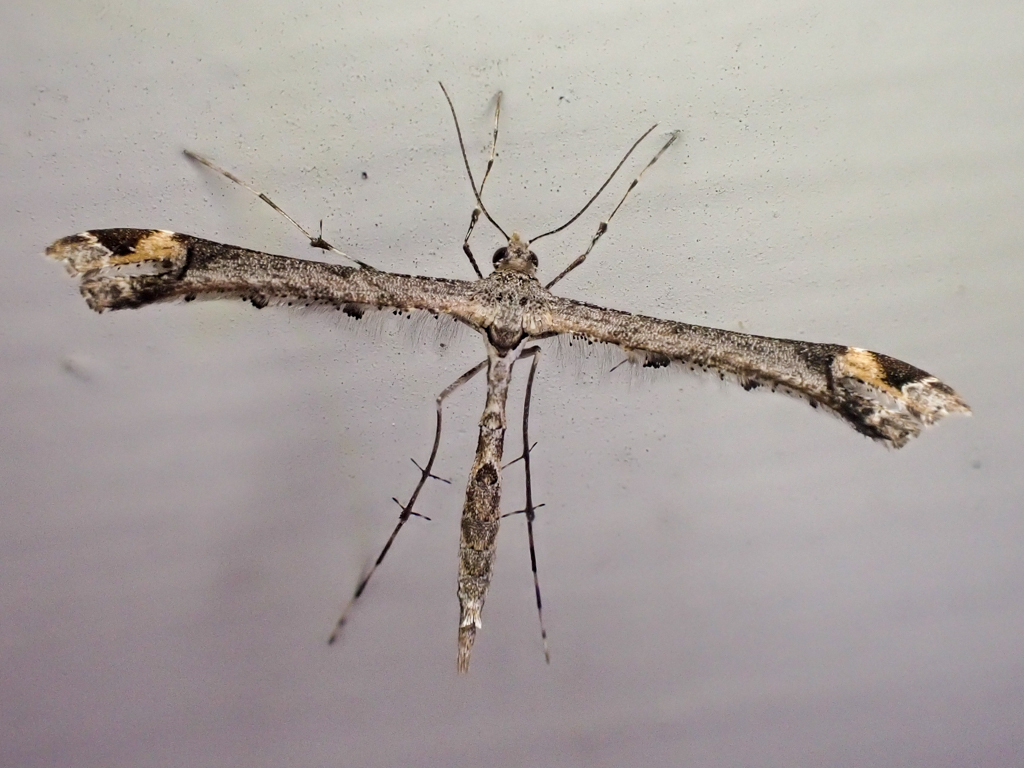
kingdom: Animalia
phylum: Arthropoda
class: Insecta
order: Lepidoptera
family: Pterophoridae
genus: Anstenoptilia
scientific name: Anstenoptilia marmarodactyla
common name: Moth
